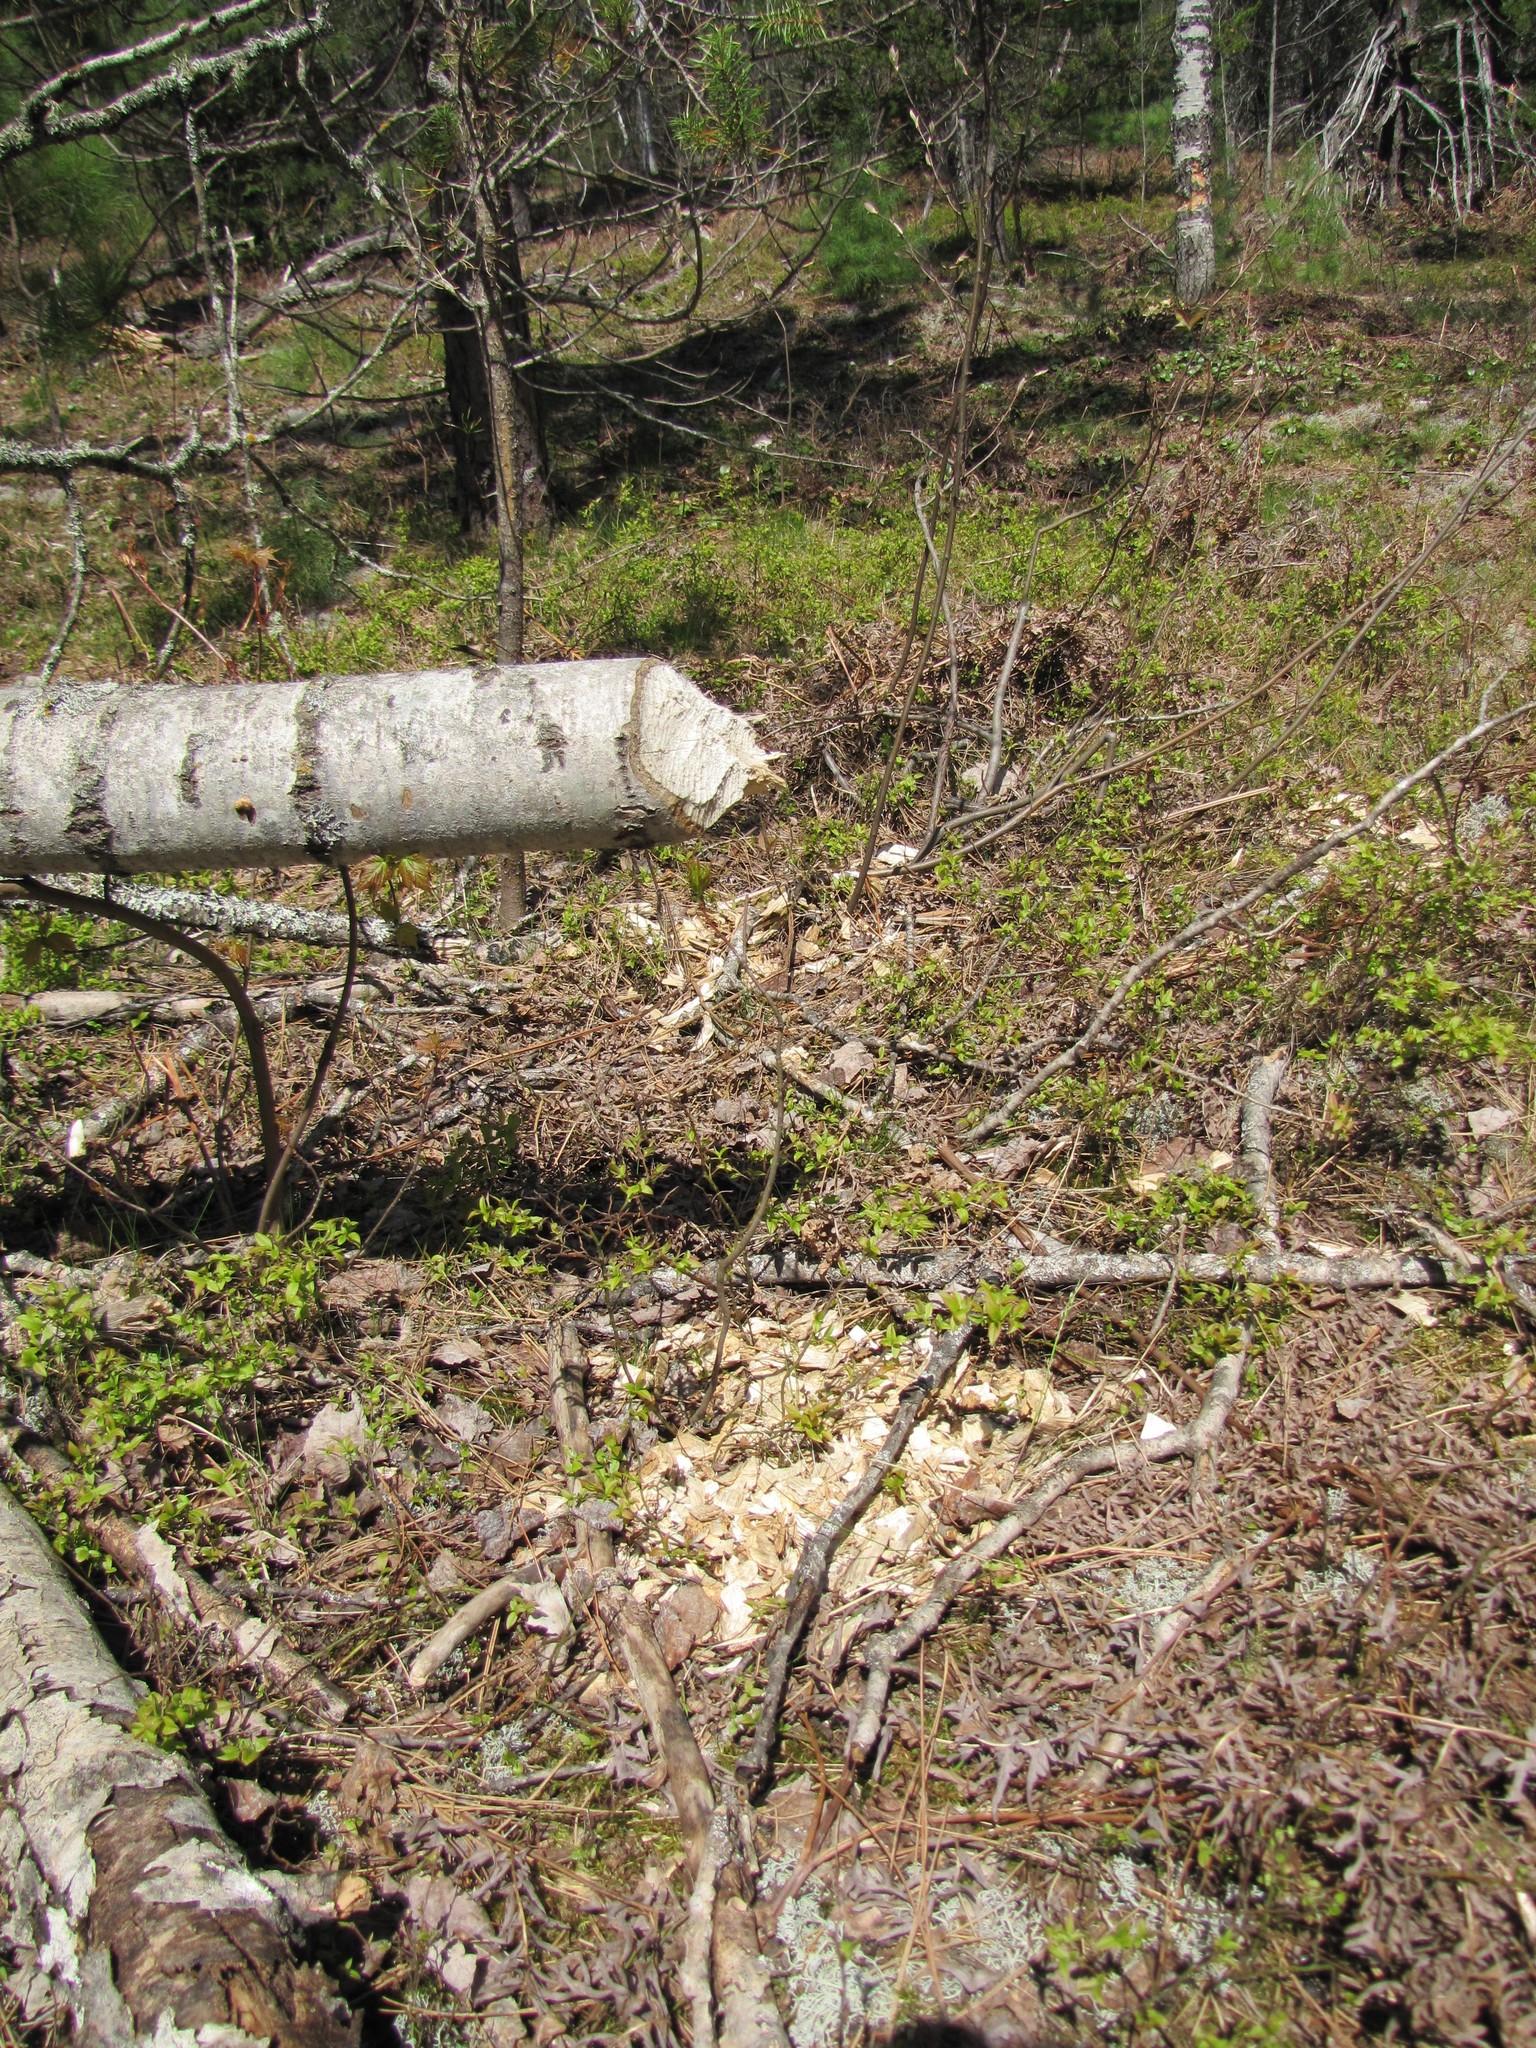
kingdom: Animalia
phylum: Chordata
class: Mammalia
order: Rodentia
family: Castoridae
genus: Castor
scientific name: Castor canadensis
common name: American beaver
